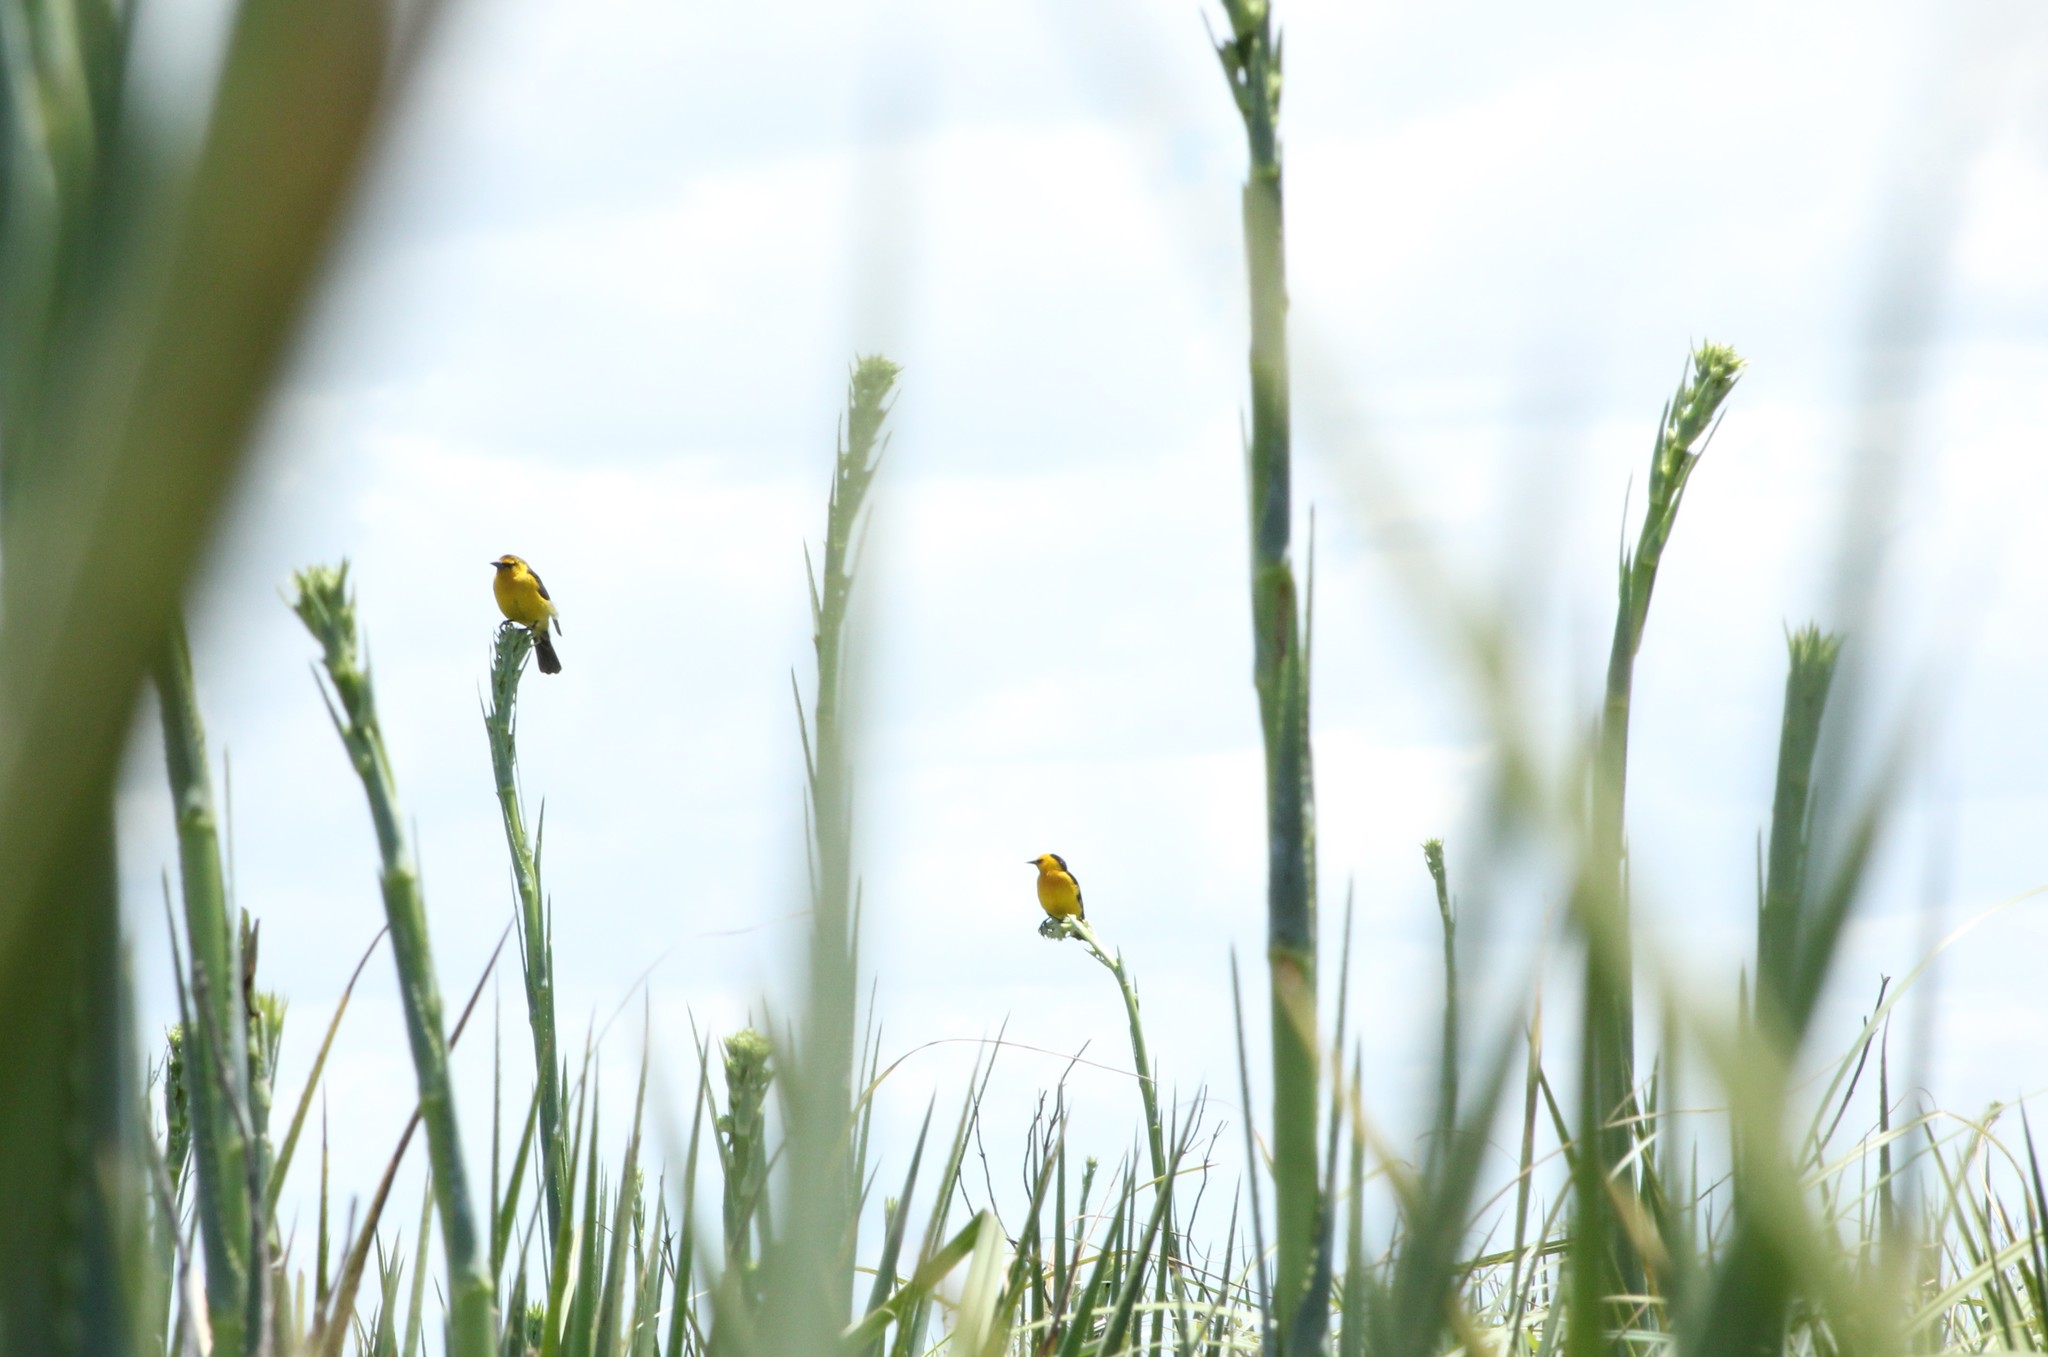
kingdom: Animalia
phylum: Chordata
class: Aves
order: Passeriformes
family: Icteridae
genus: Xanthopsar
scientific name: Xanthopsar flavus
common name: Saffron-cowled blackbird
